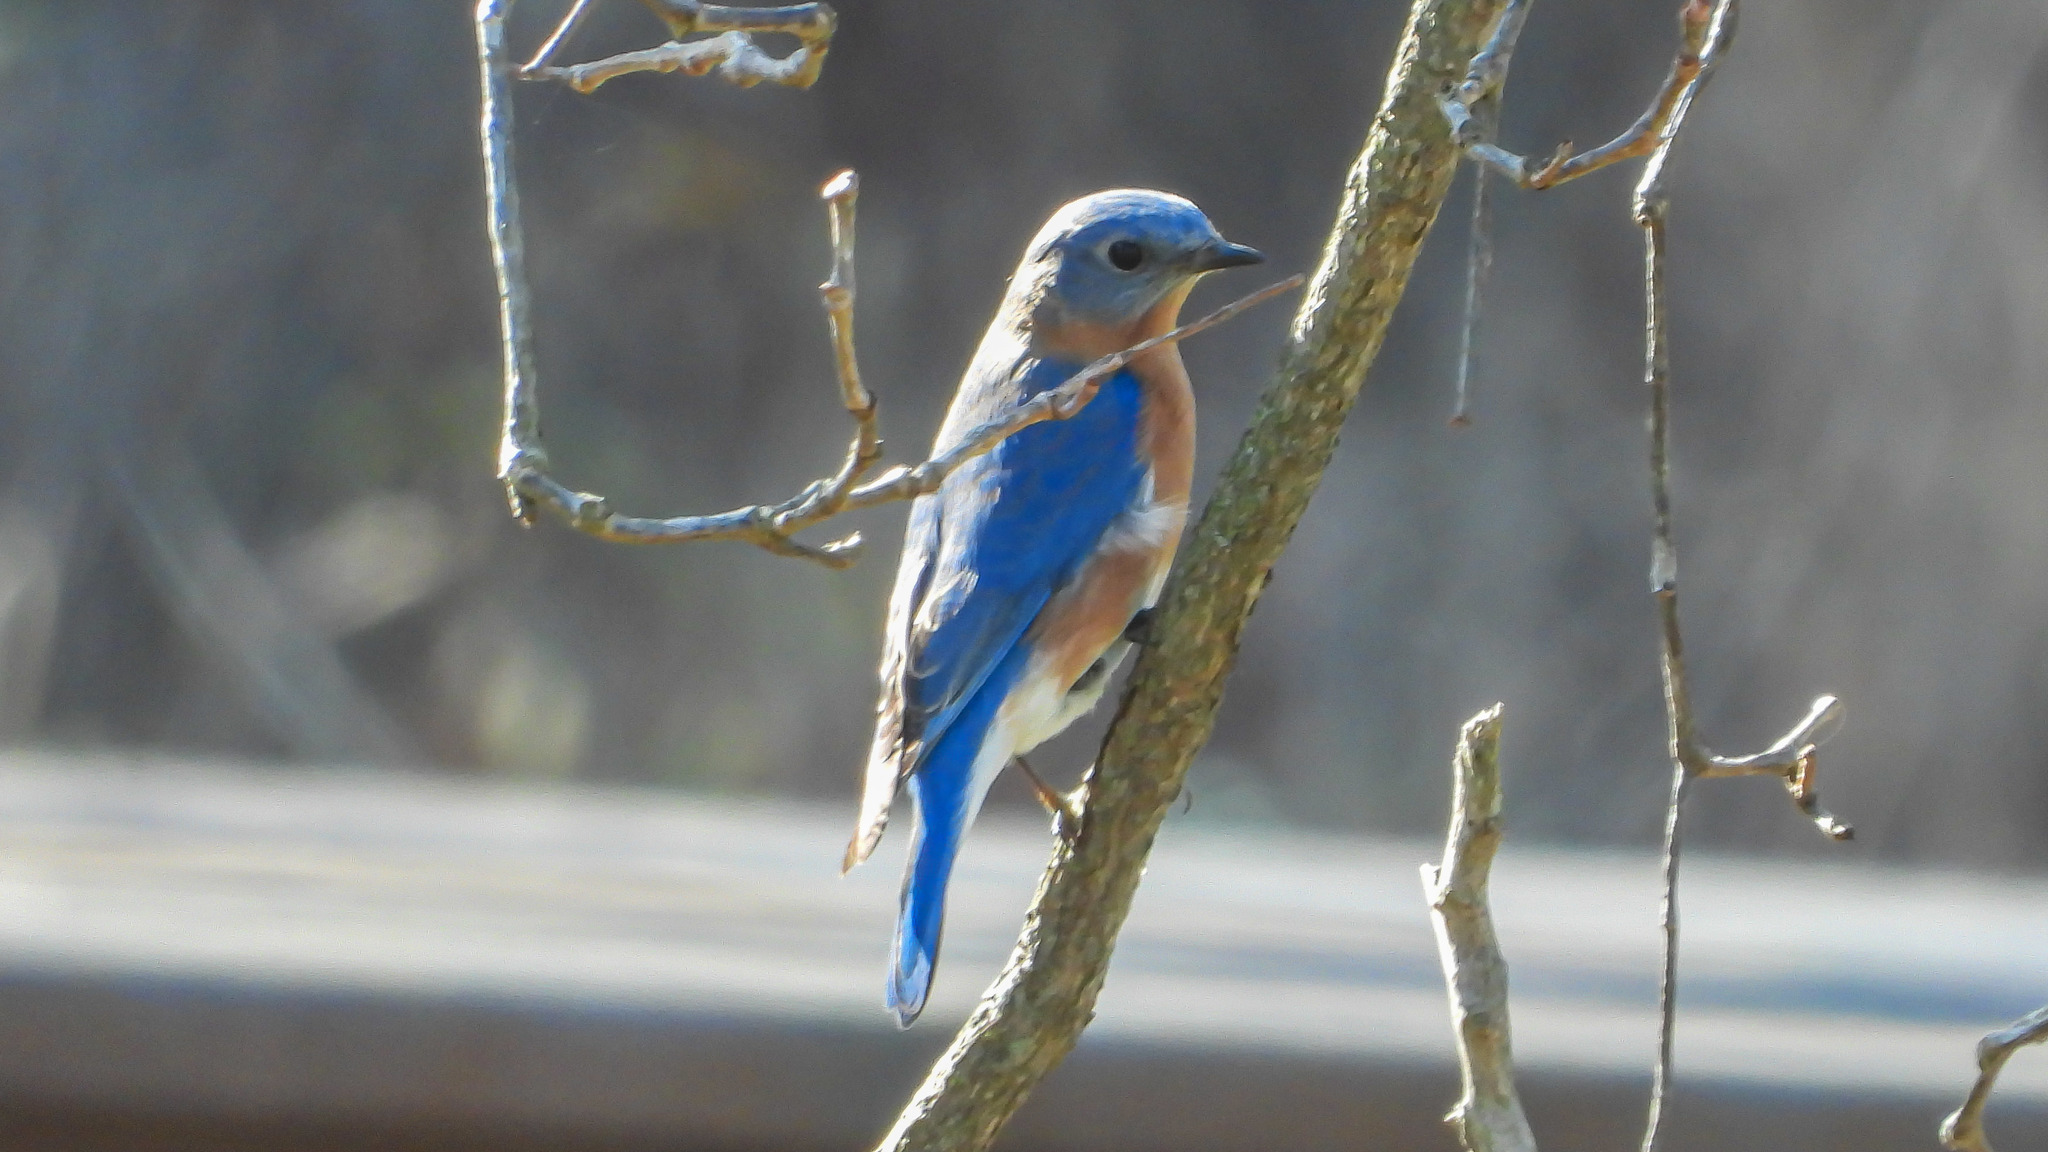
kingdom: Animalia
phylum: Chordata
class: Aves
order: Passeriformes
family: Turdidae
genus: Sialia
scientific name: Sialia sialis
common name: Eastern bluebird
